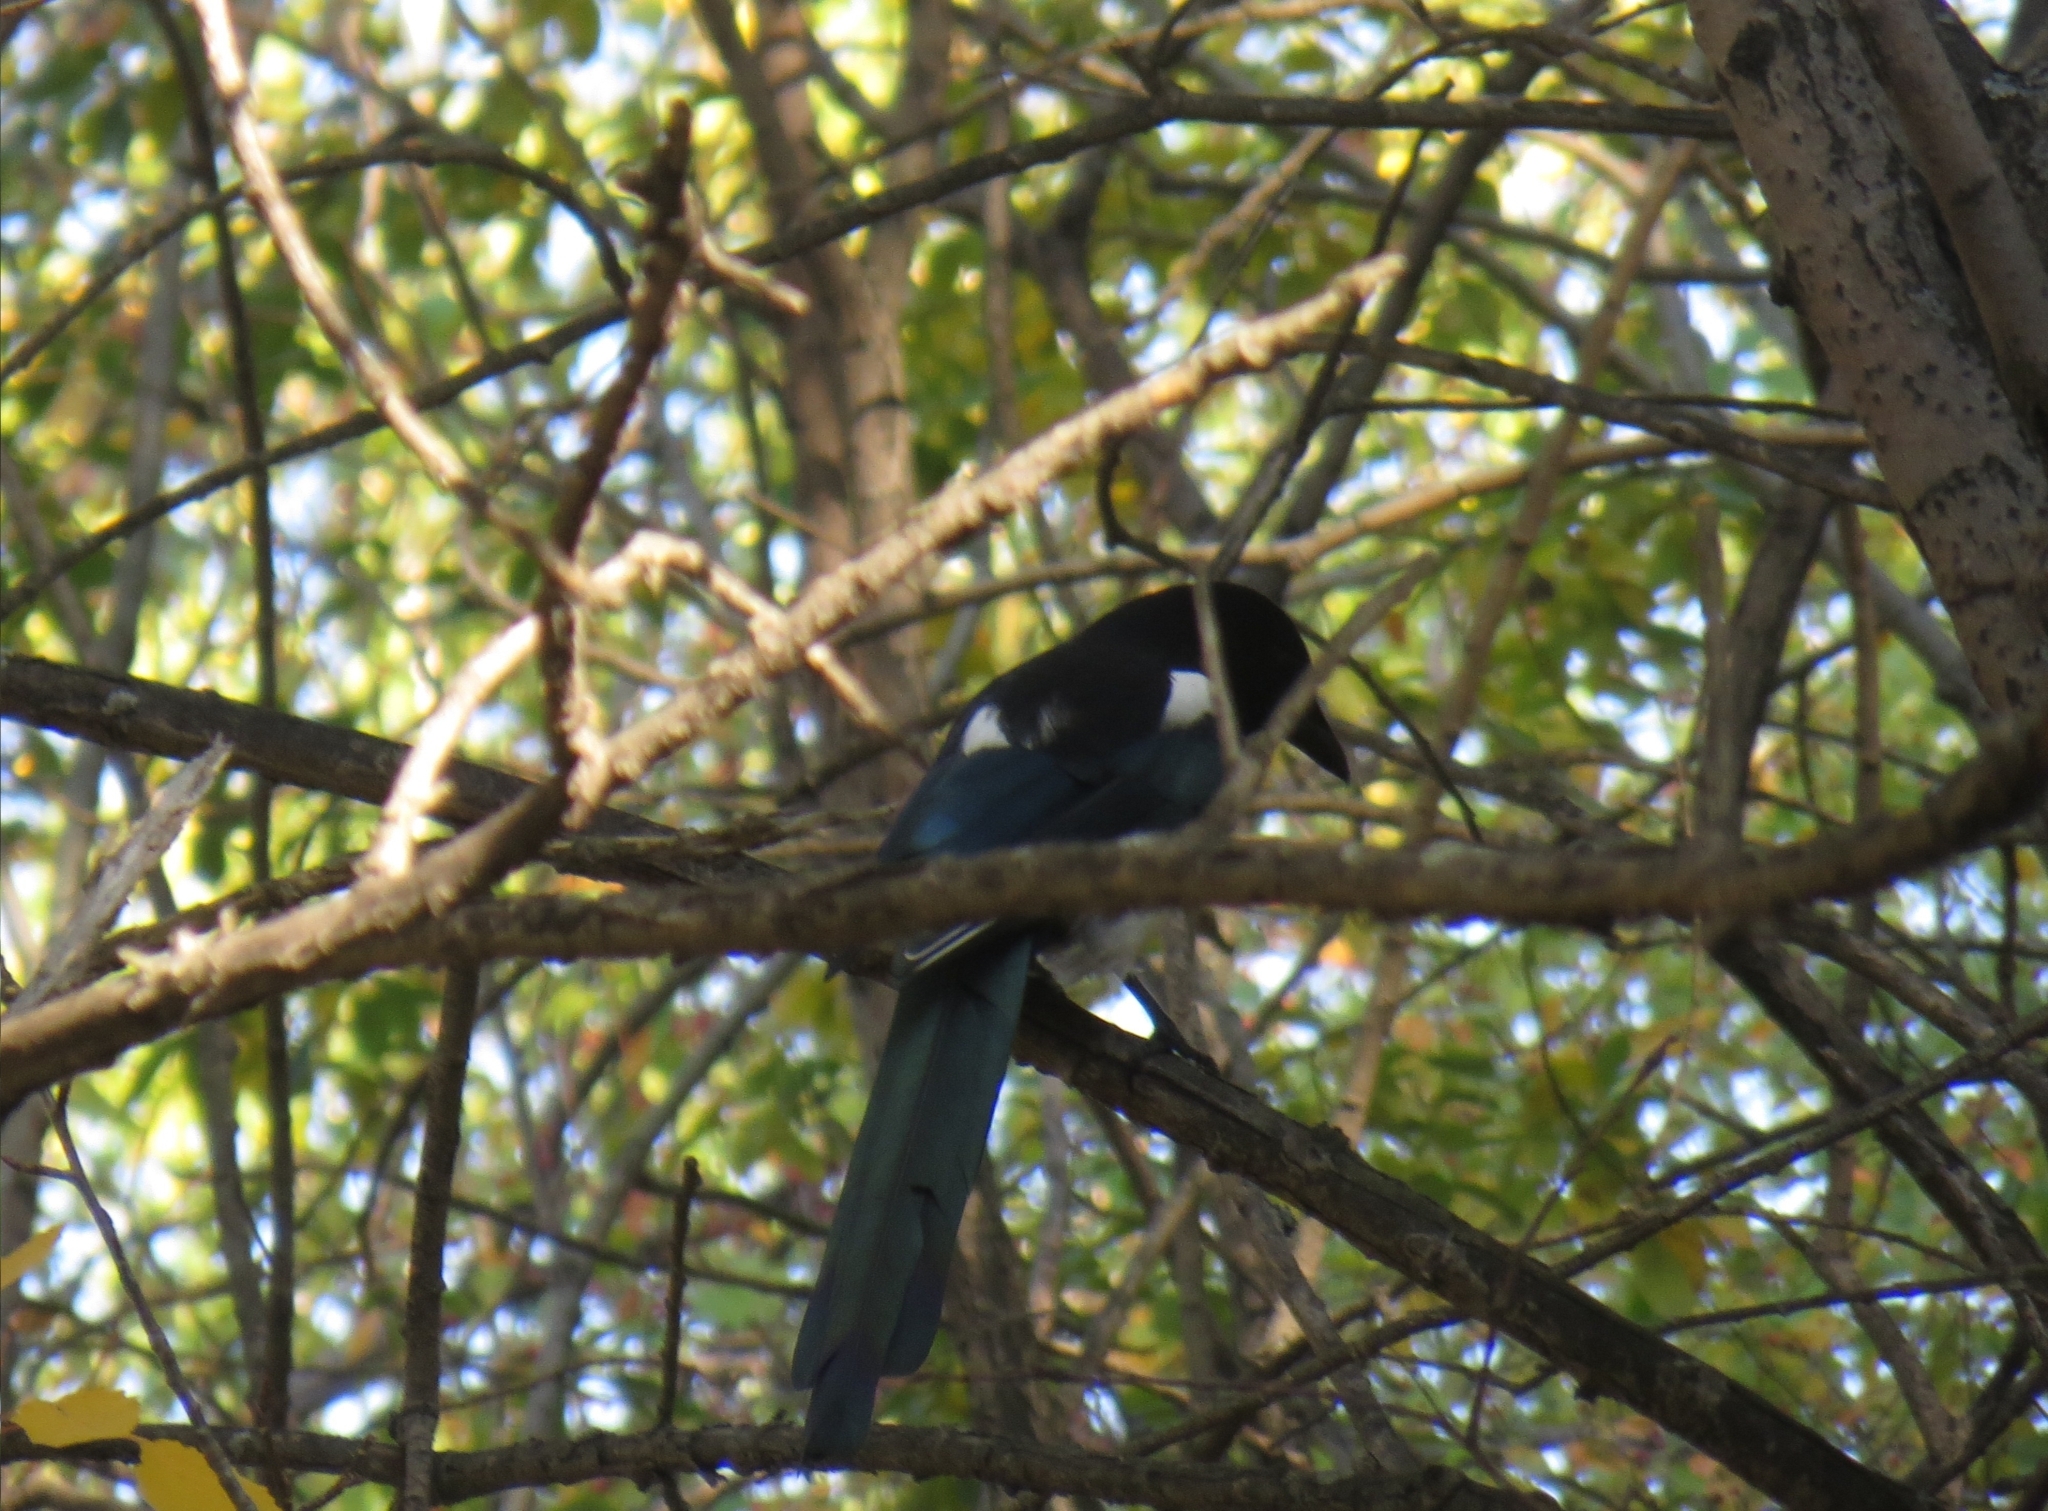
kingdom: Animalia
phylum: Chordata
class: Aves
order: Passeriformes
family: Corvidae
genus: Pica
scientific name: Pica pica
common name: Eurasian magpie
